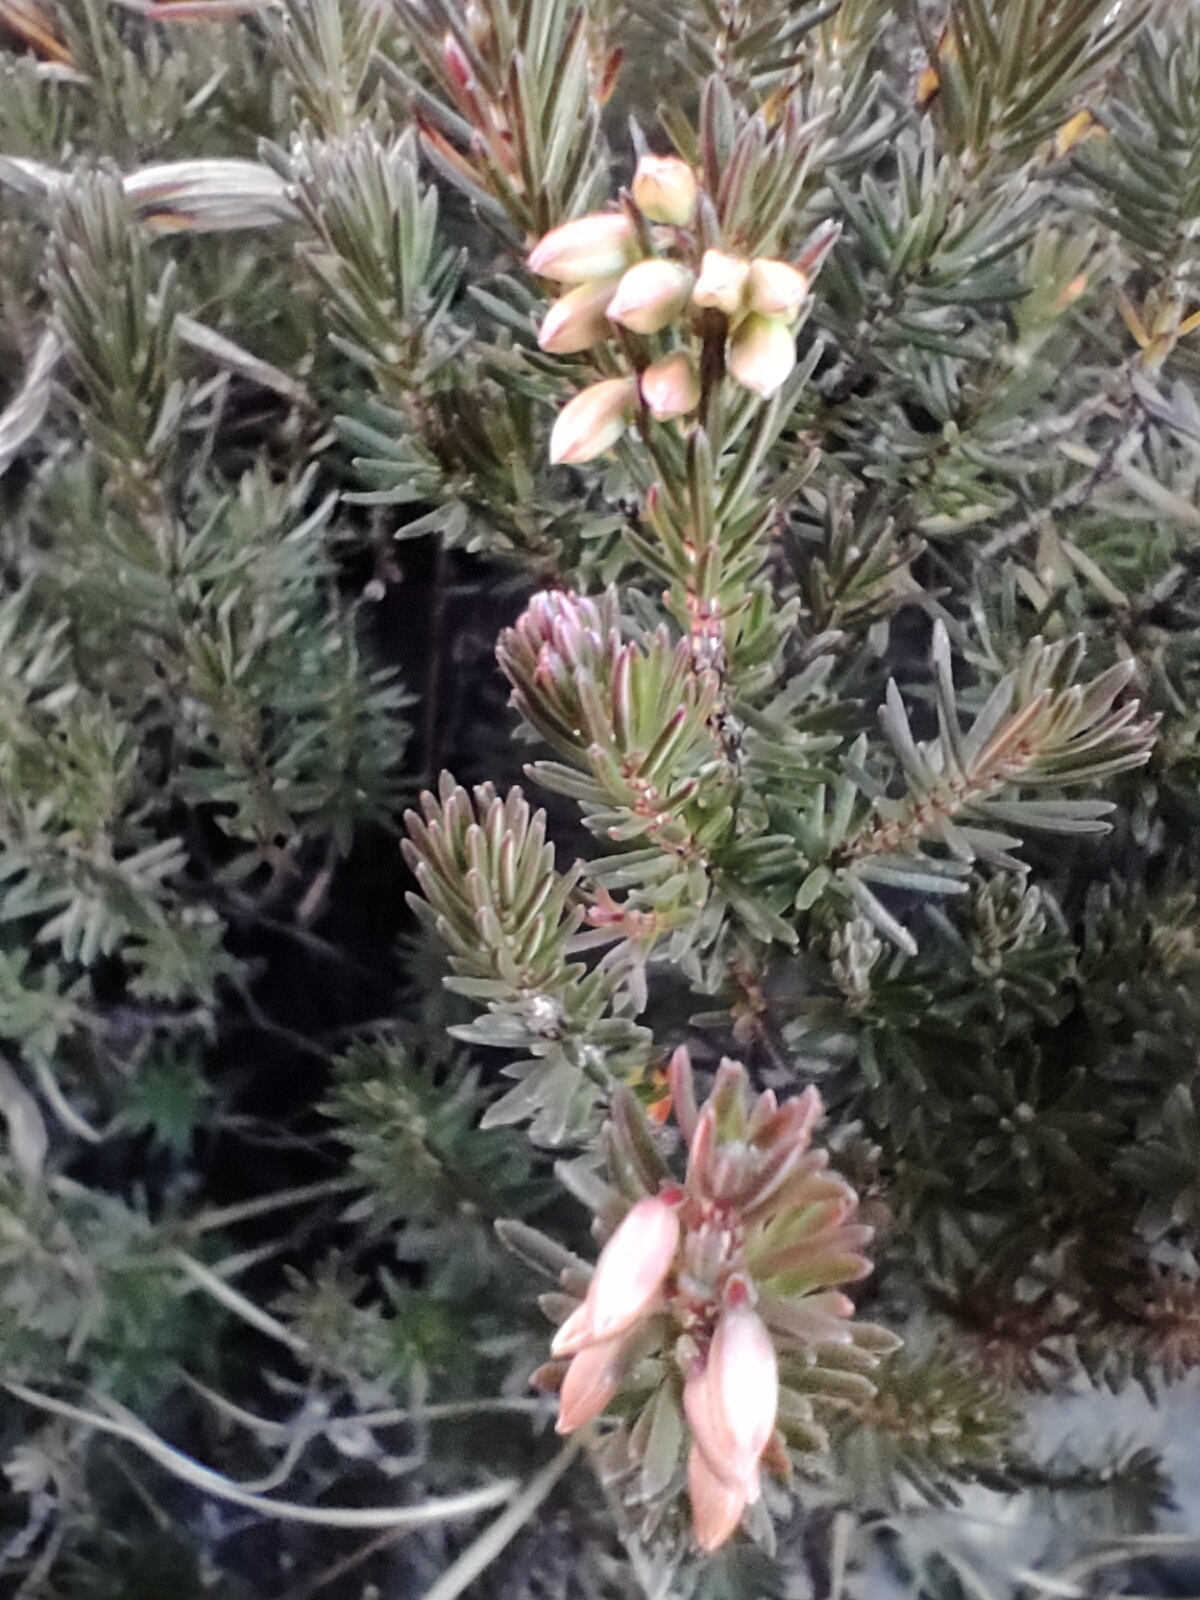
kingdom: Plantae
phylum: Tracheophyta
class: Magnoliopsida
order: Ericales
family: Ericaceae
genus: Erica
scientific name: Erica carnea
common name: Winter heath
